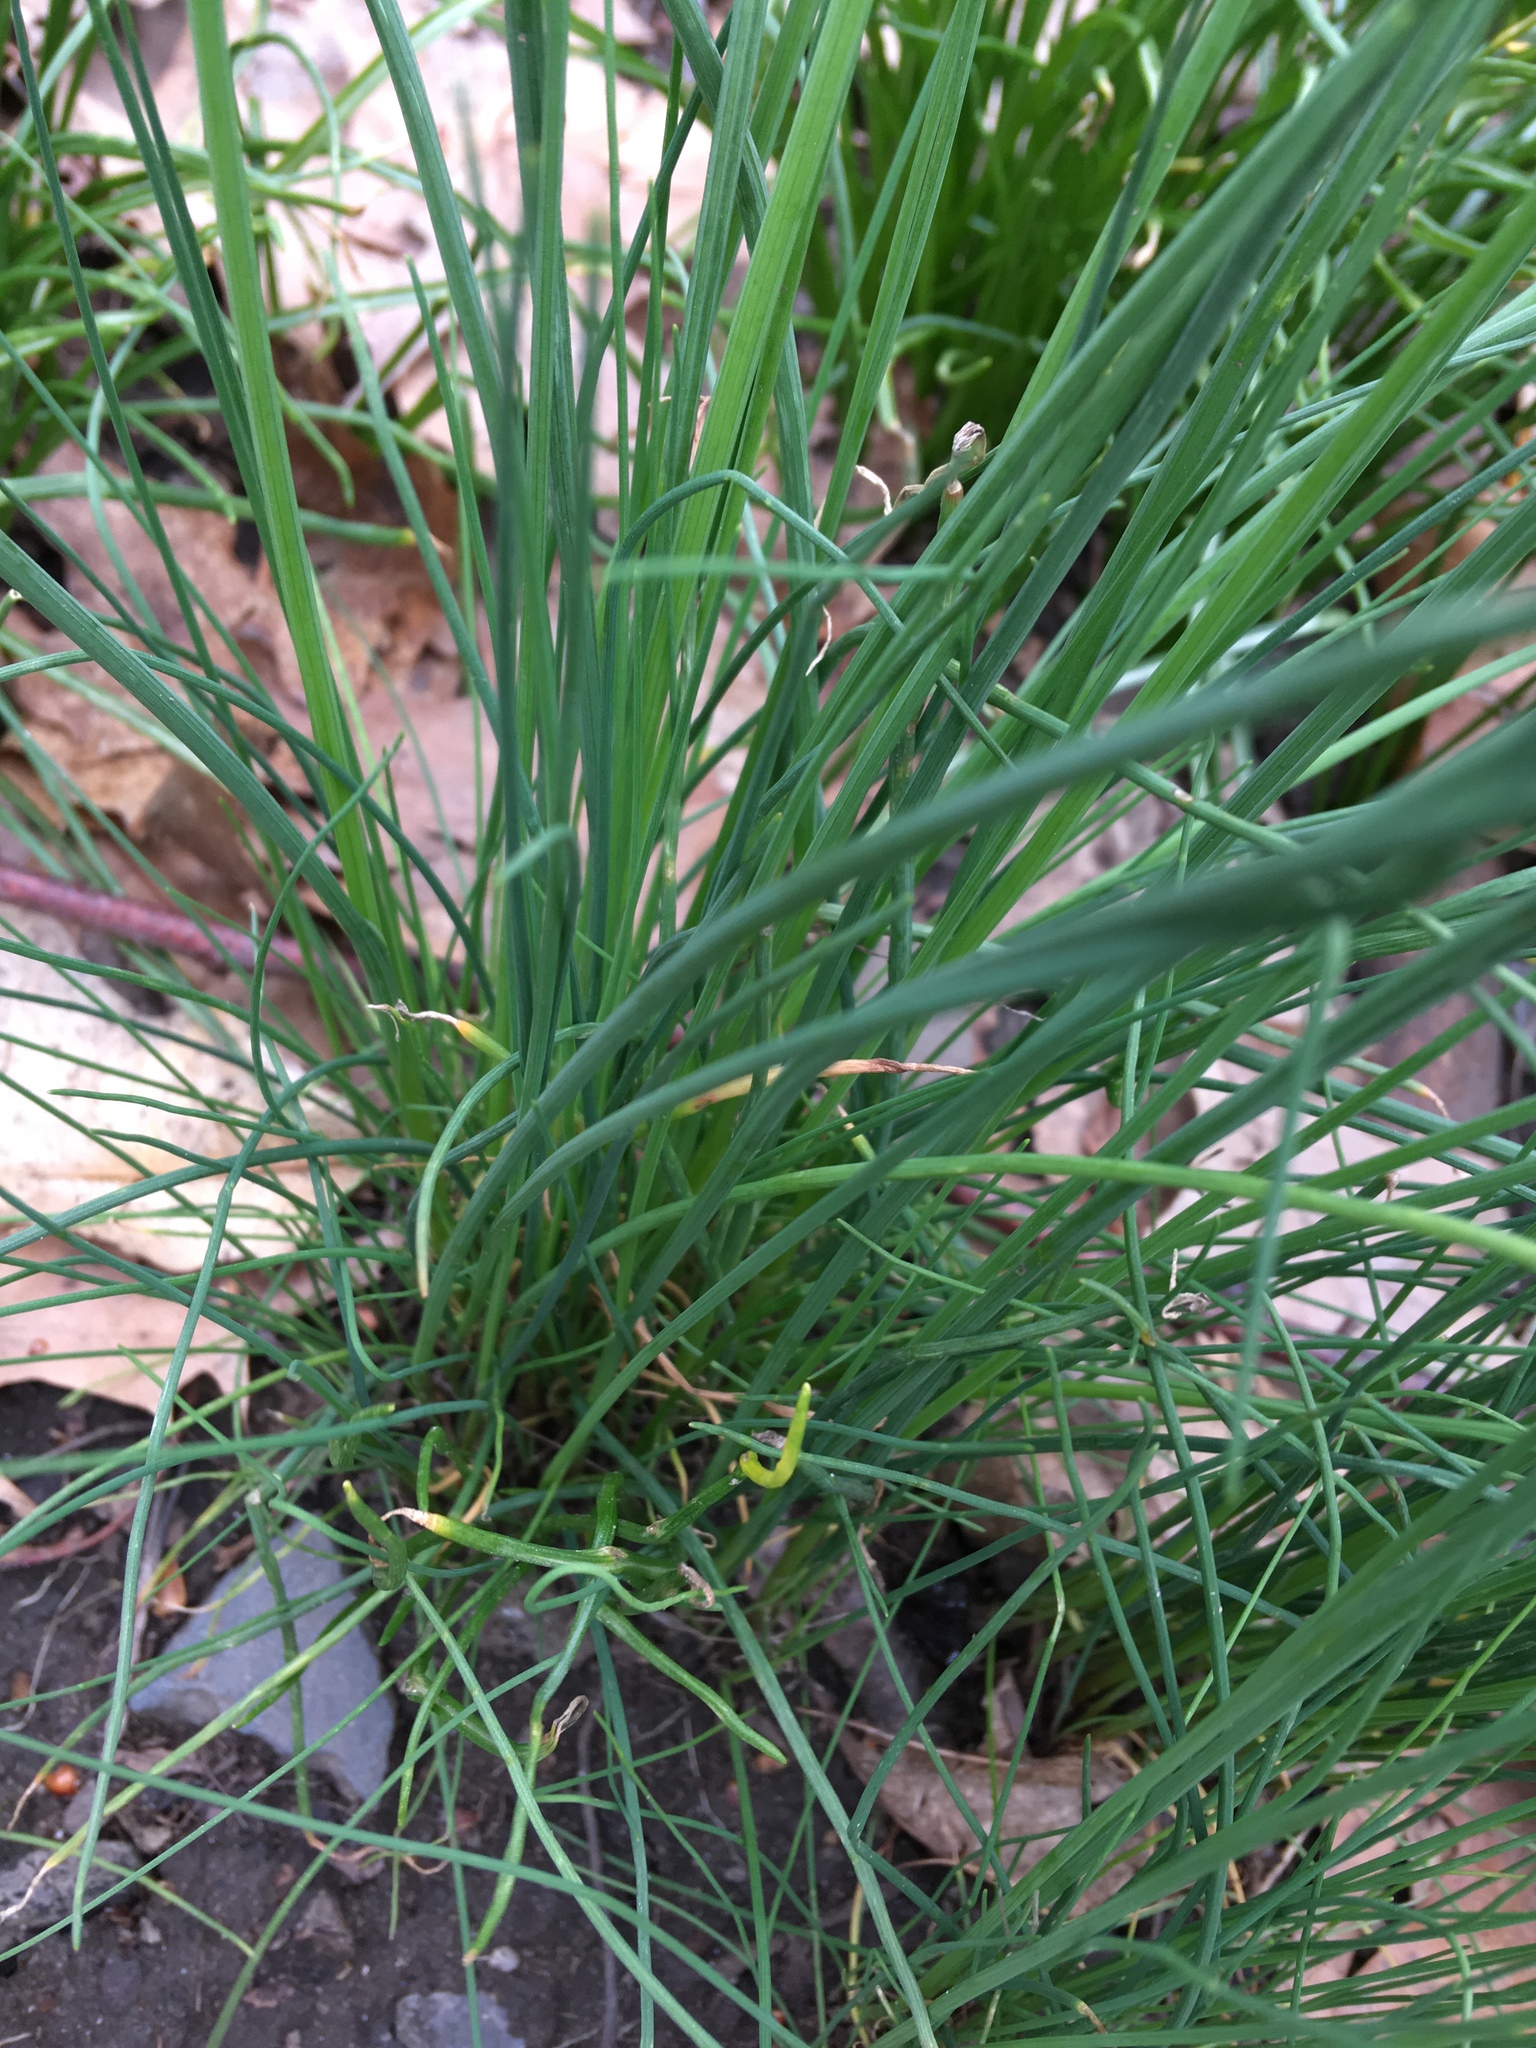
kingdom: Plantae
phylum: Tracheophyta
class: Liliopsida
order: Asparagales
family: Amaryllidaceae
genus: Allium
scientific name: Allium vineale
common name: Crow garlic
